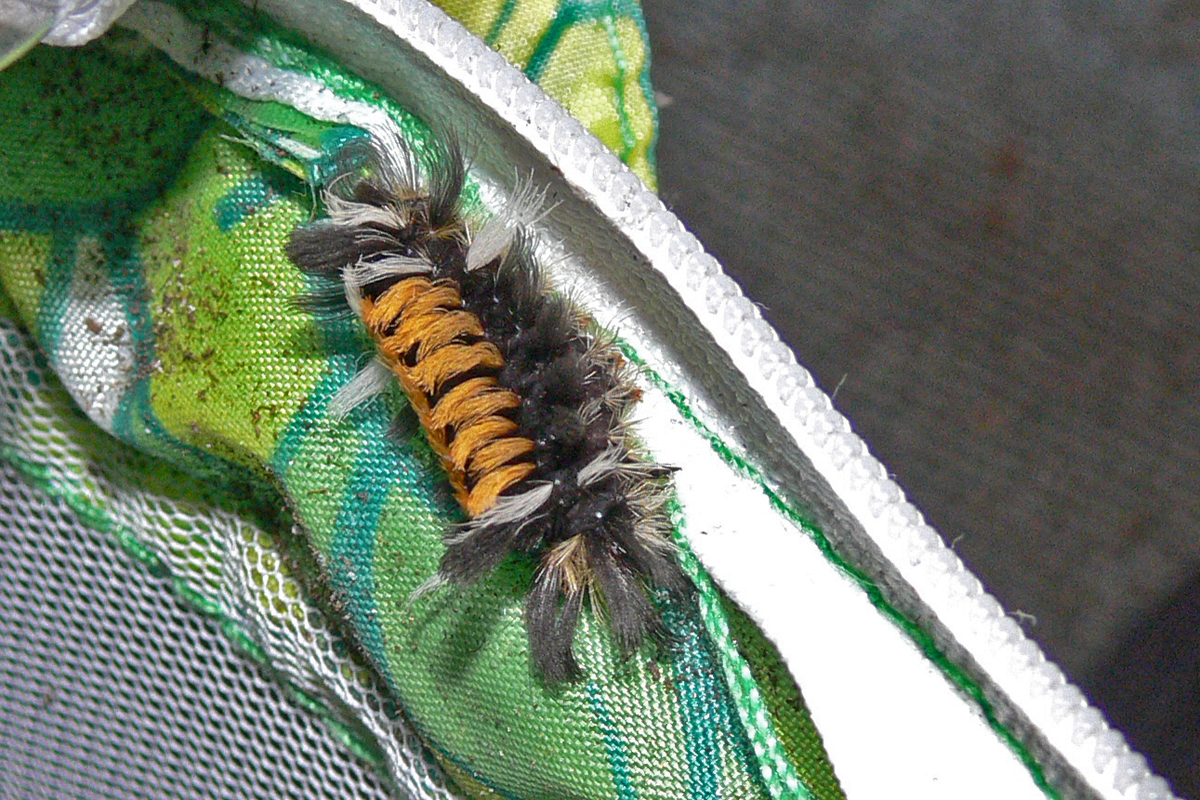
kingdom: Animalia
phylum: Arthropoda
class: Insecta
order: Lepidoptera
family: Erebidae
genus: Euchaetes
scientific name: Euchaetes egle
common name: Milkweed tussock moth
